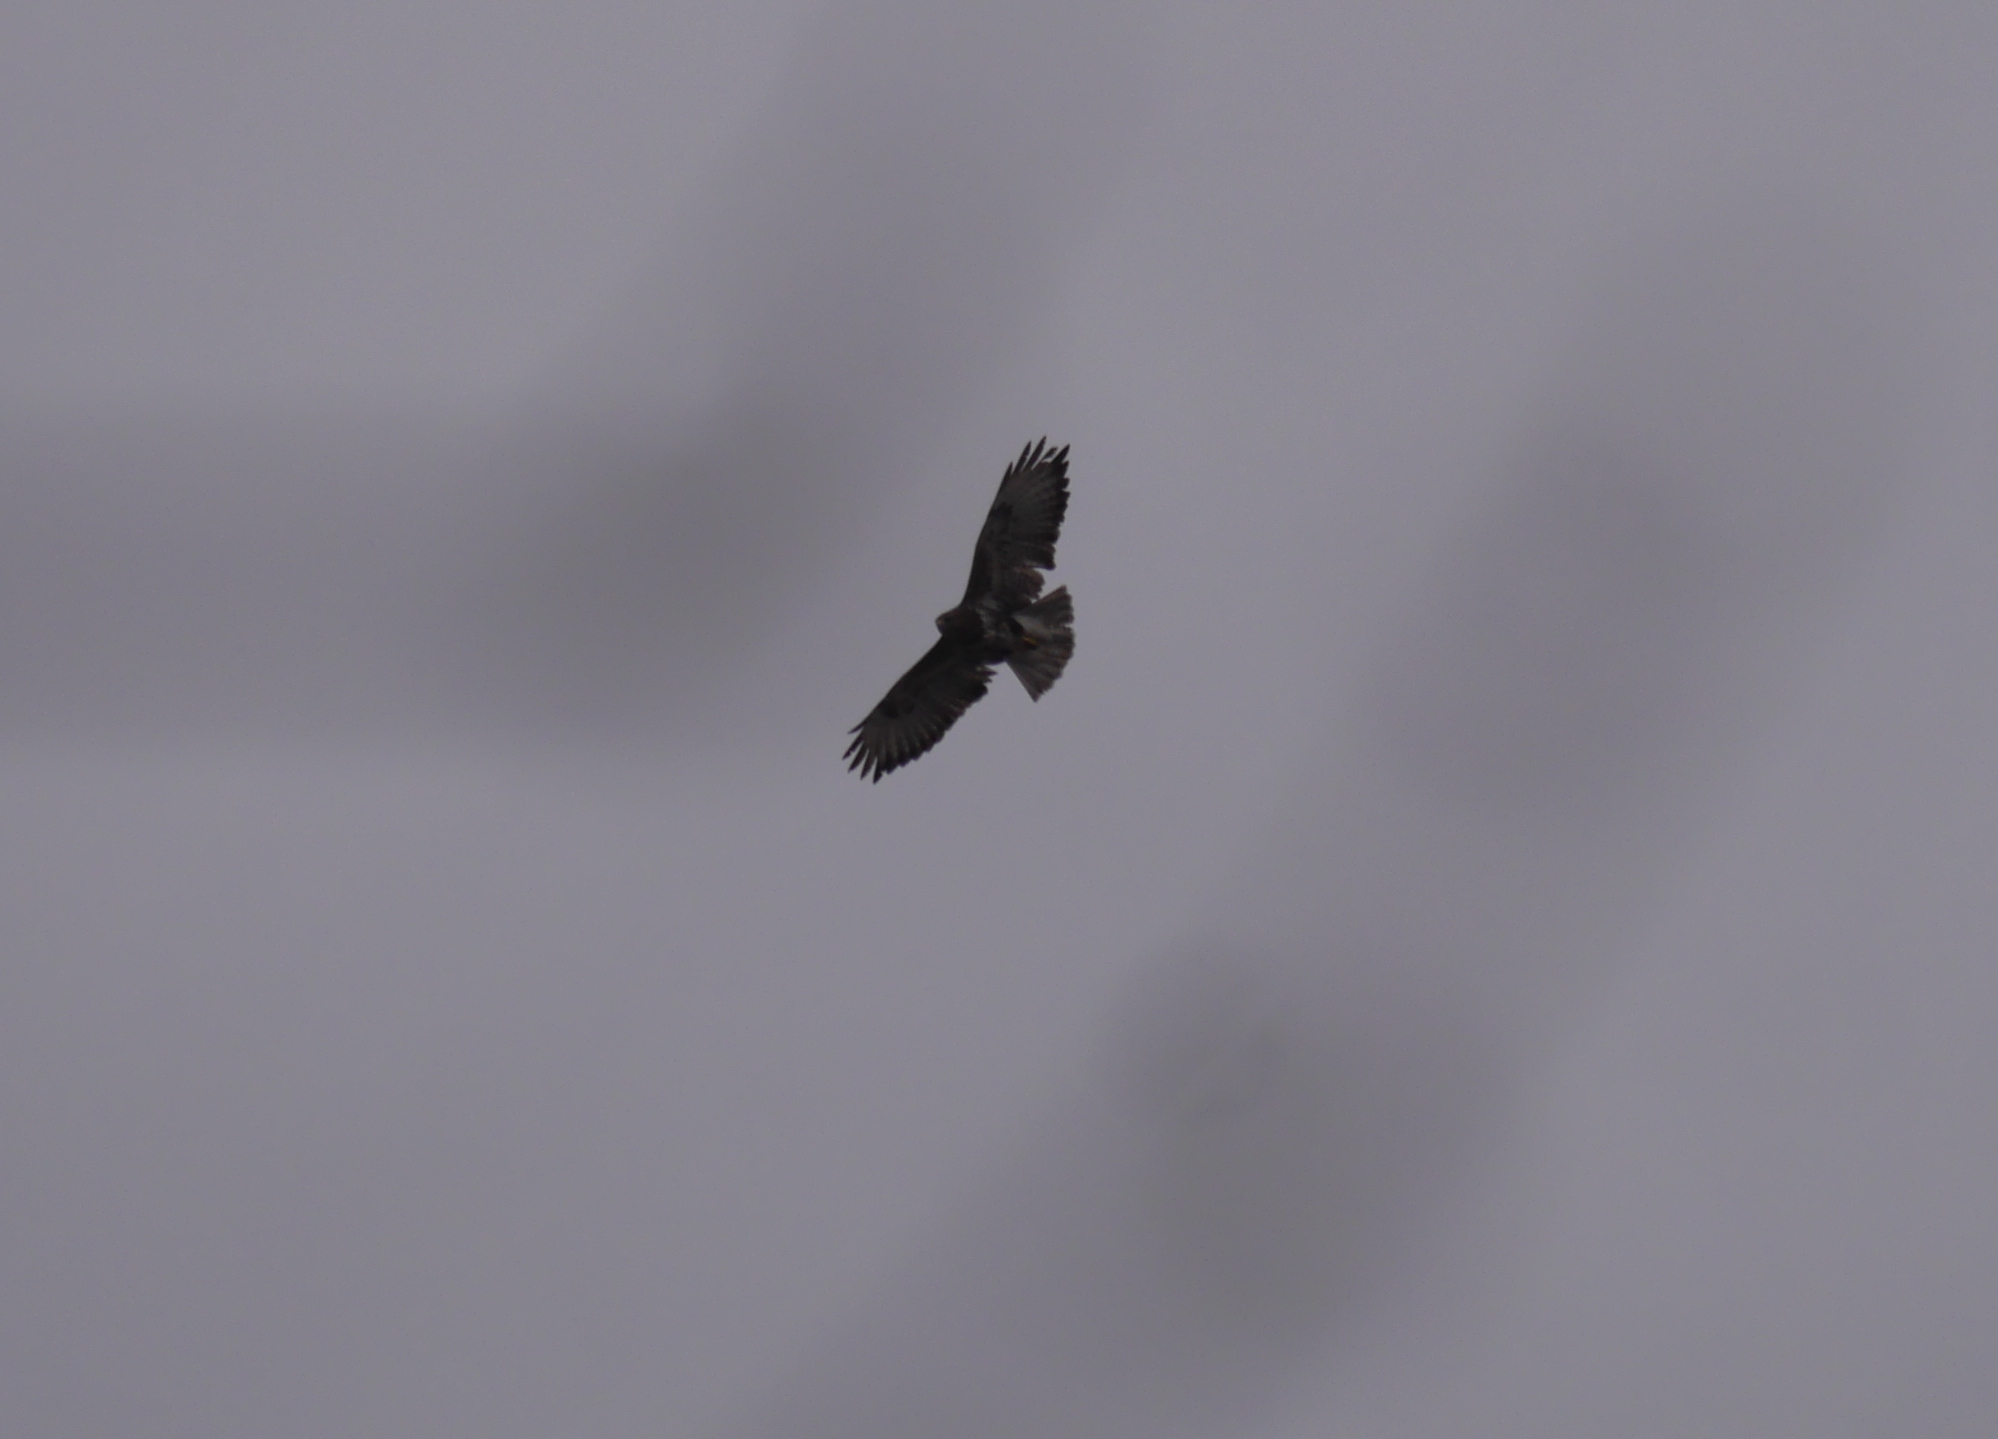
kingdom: Animalia
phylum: Chordata
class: Aves
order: Accipitriformes
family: Accipitridae
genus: Buteo
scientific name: Buteo buteo
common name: Common buzzard
